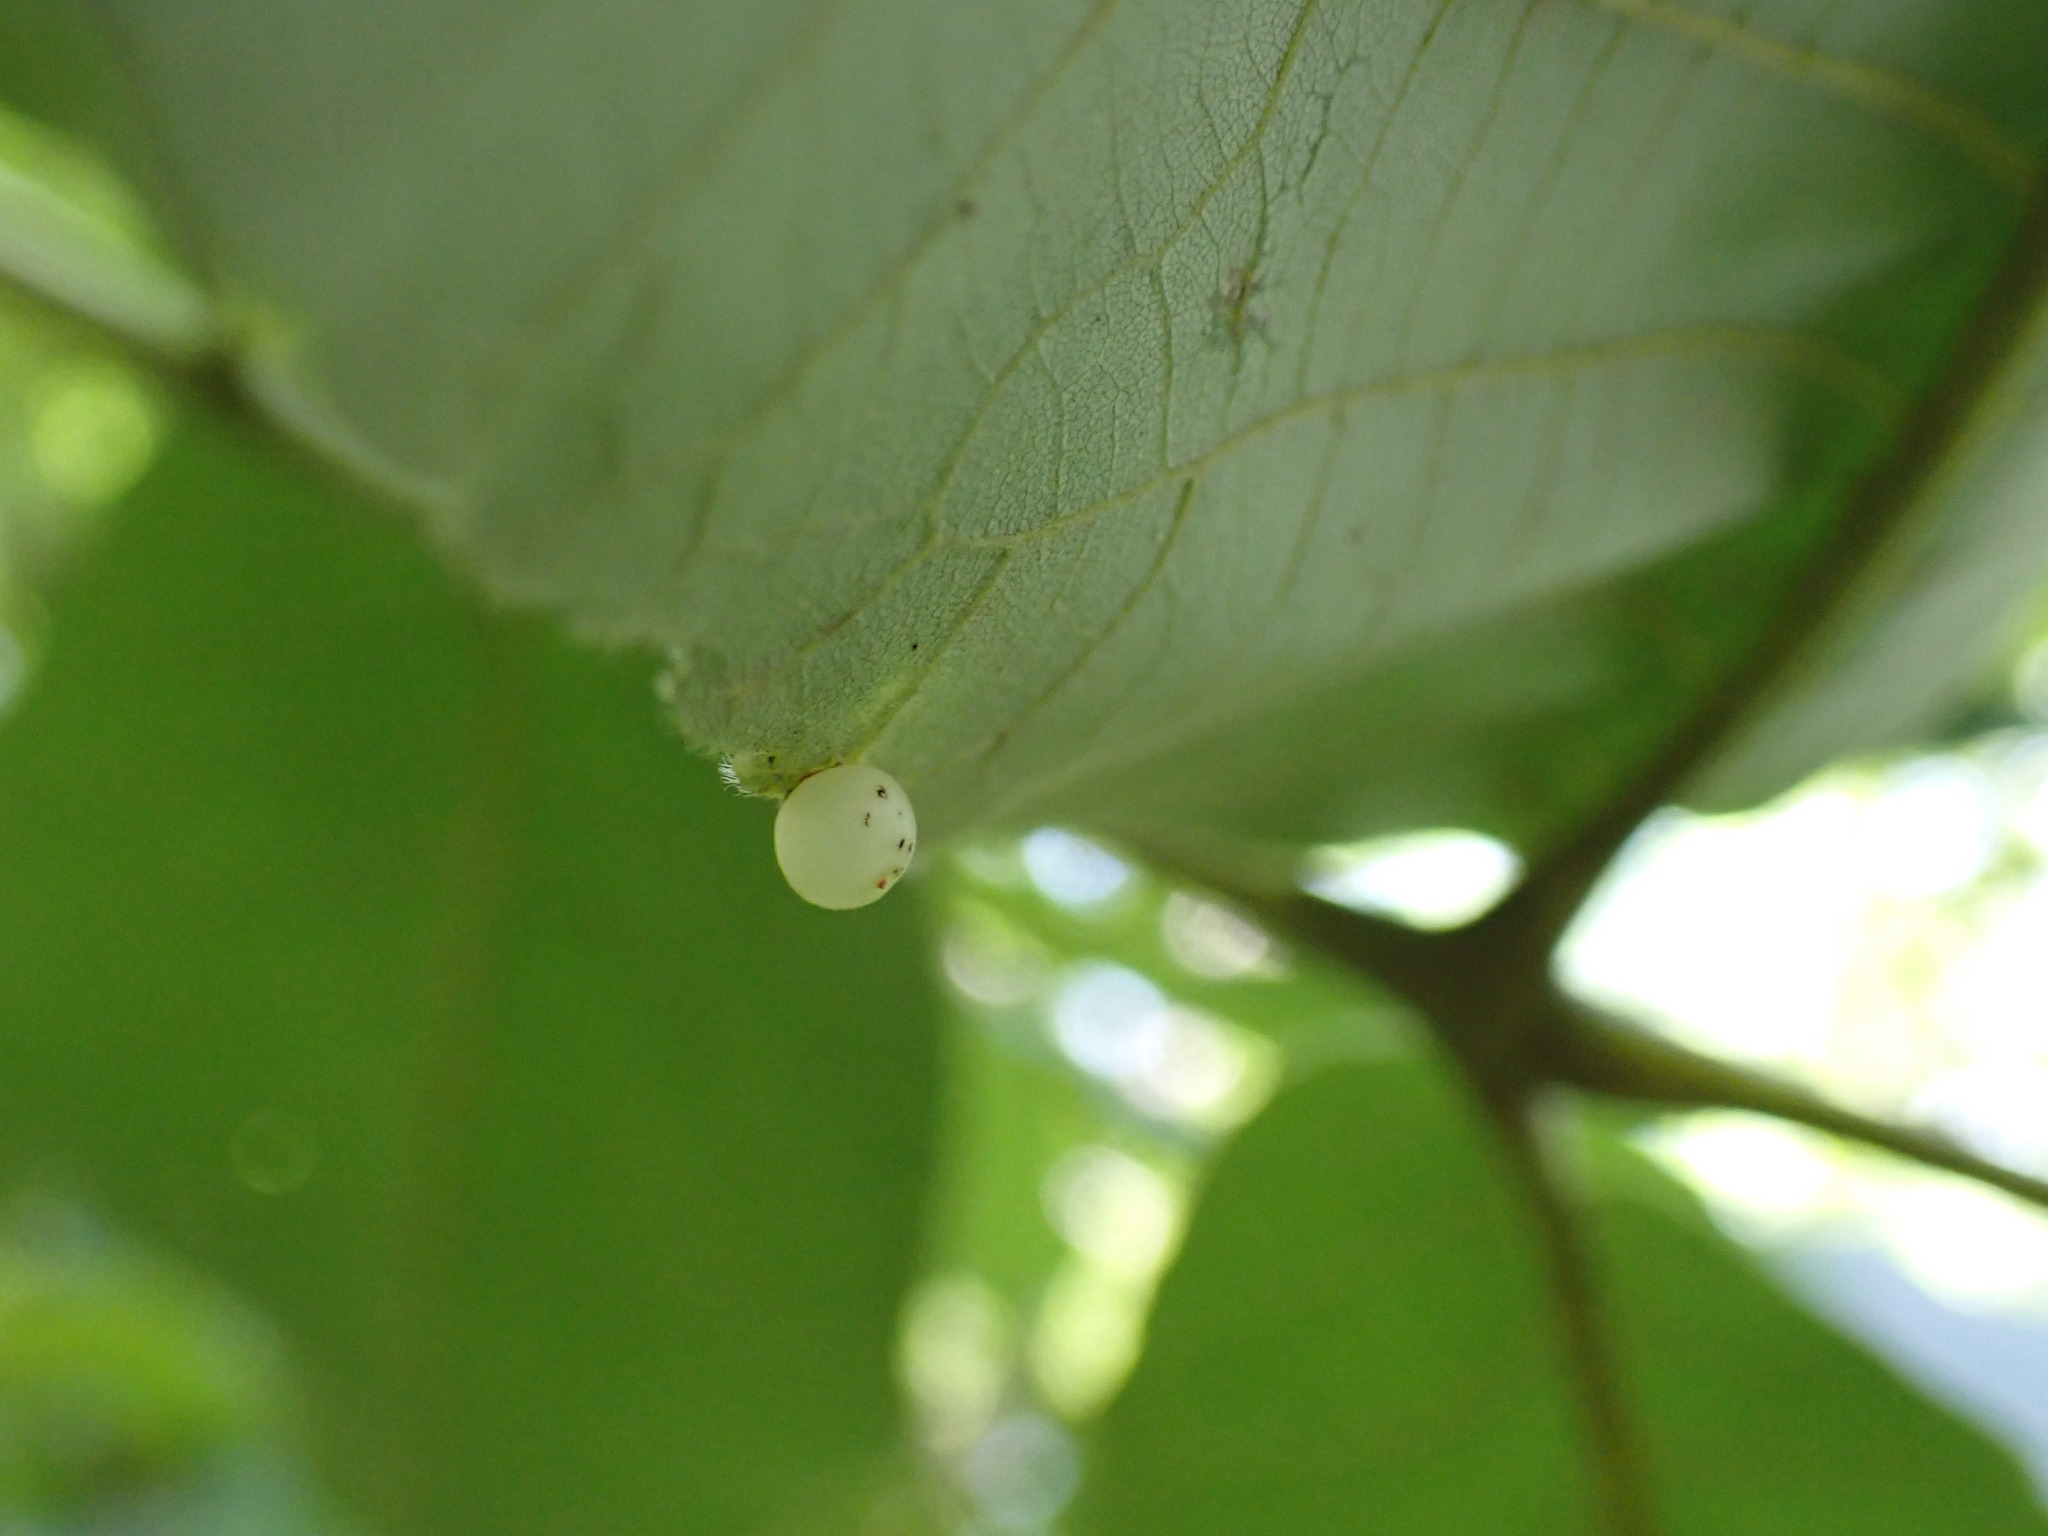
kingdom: Animalia
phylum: Arthropoda
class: Insecta
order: Diptera
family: Cecidomyiidae
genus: Caryomyia
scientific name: Caryomyia deflexipili
